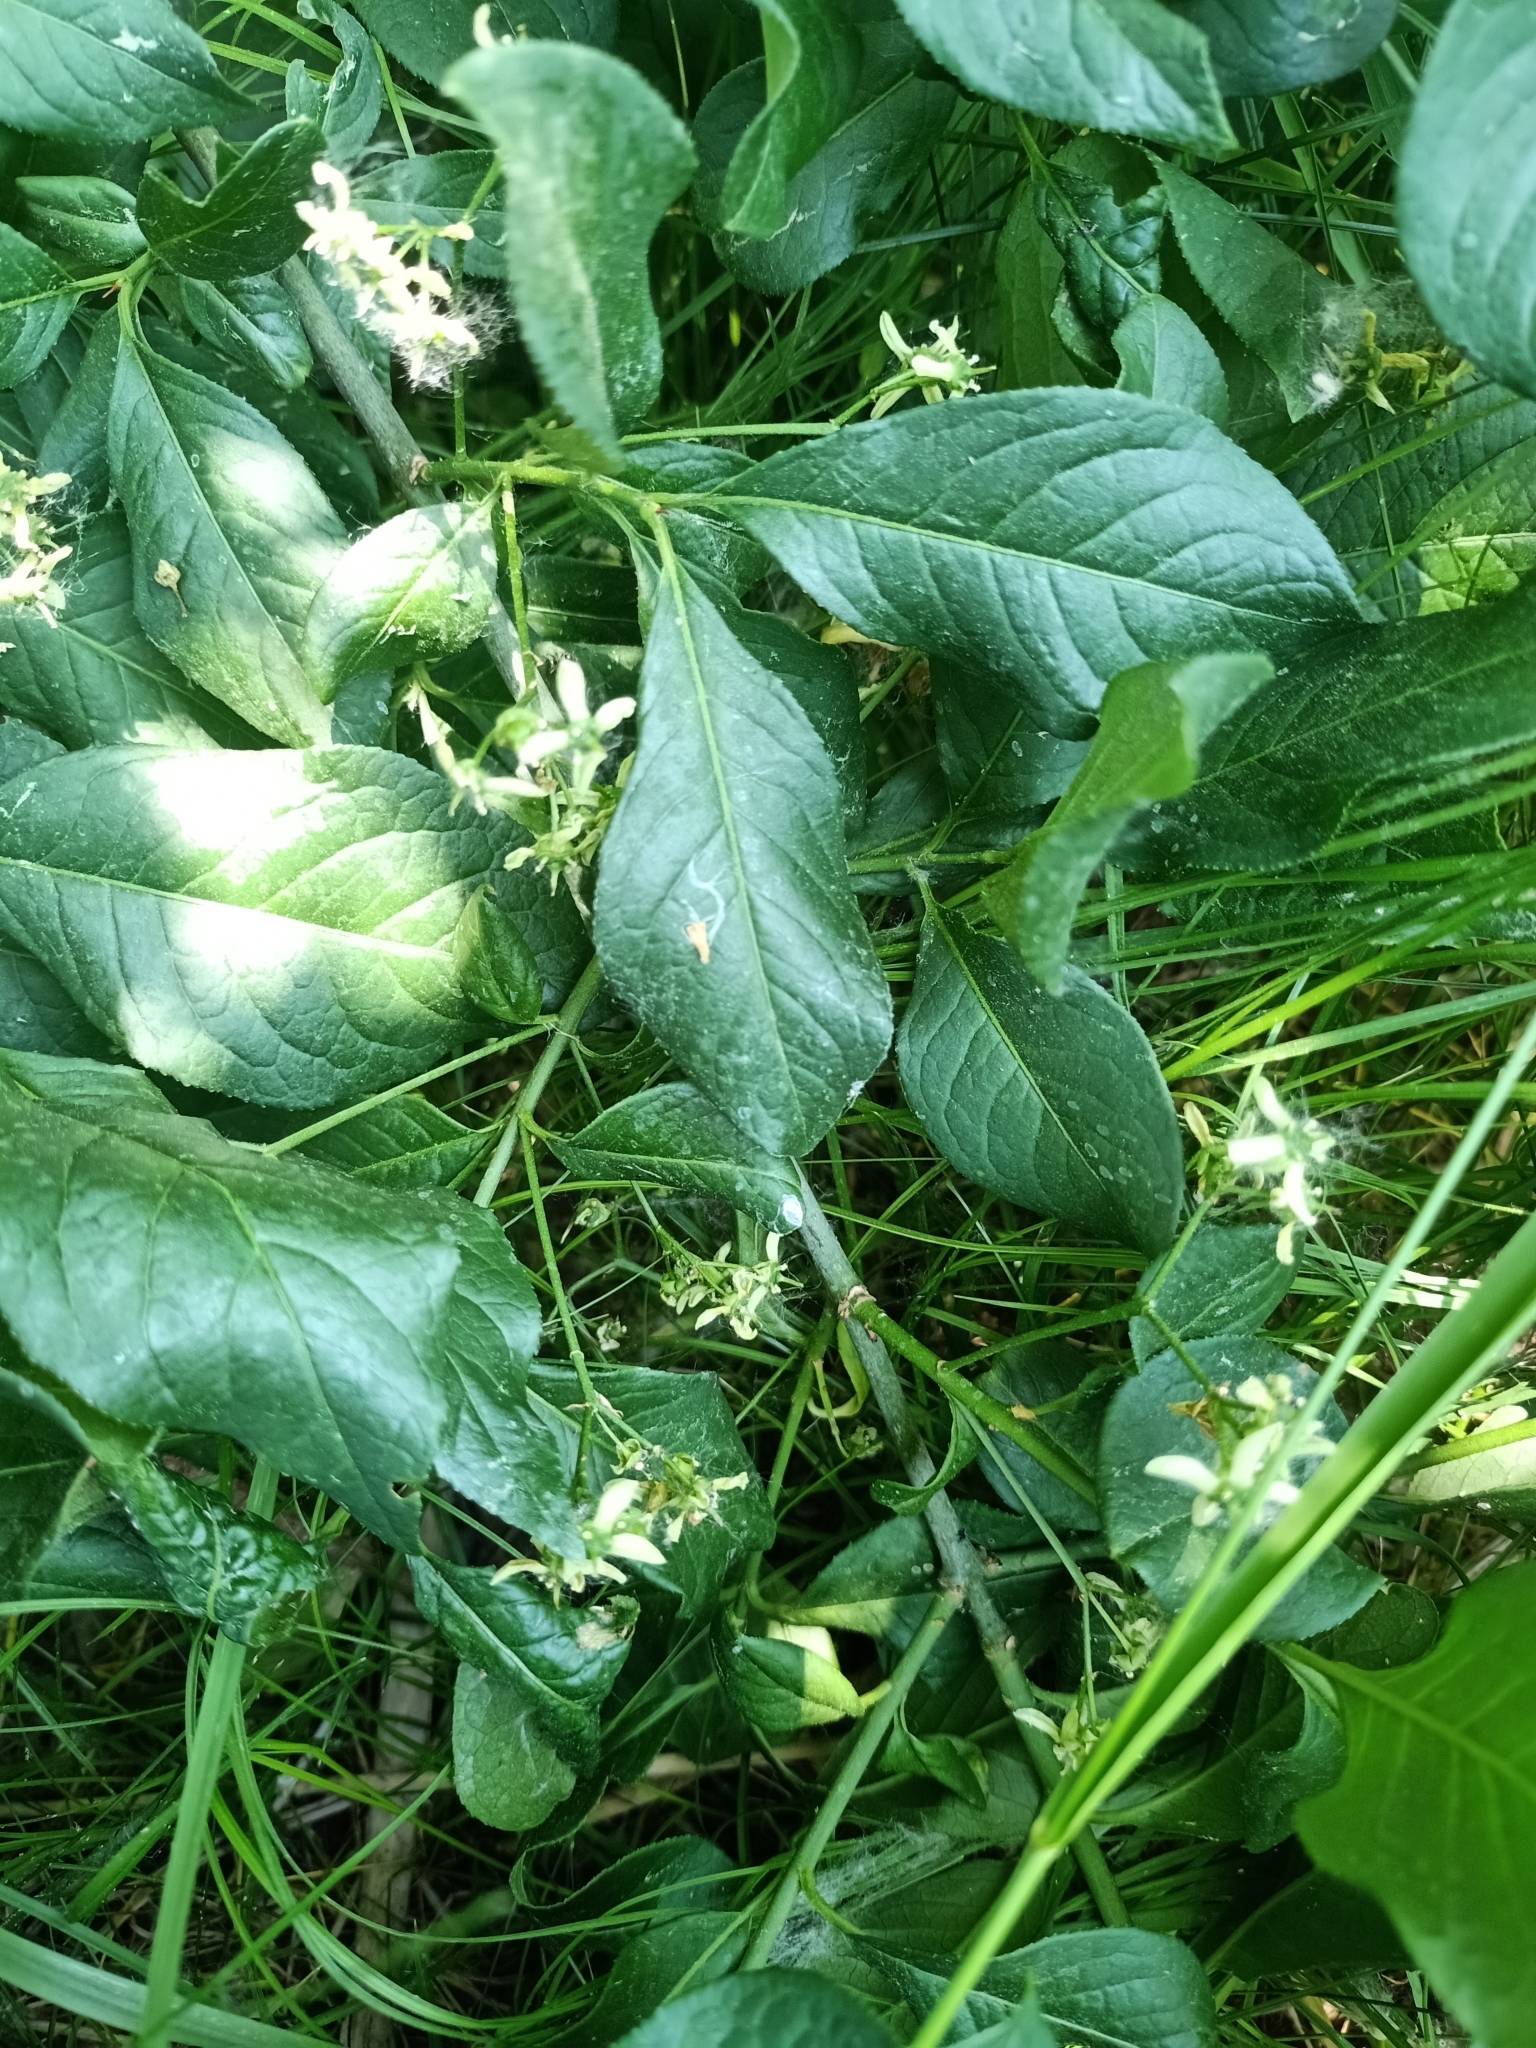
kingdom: Plantae
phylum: Tracheophyta
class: Magnoliopsida
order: Celastrales
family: Celastraceae
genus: Euonymus
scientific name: Euonymus europaeus
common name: Spindle
